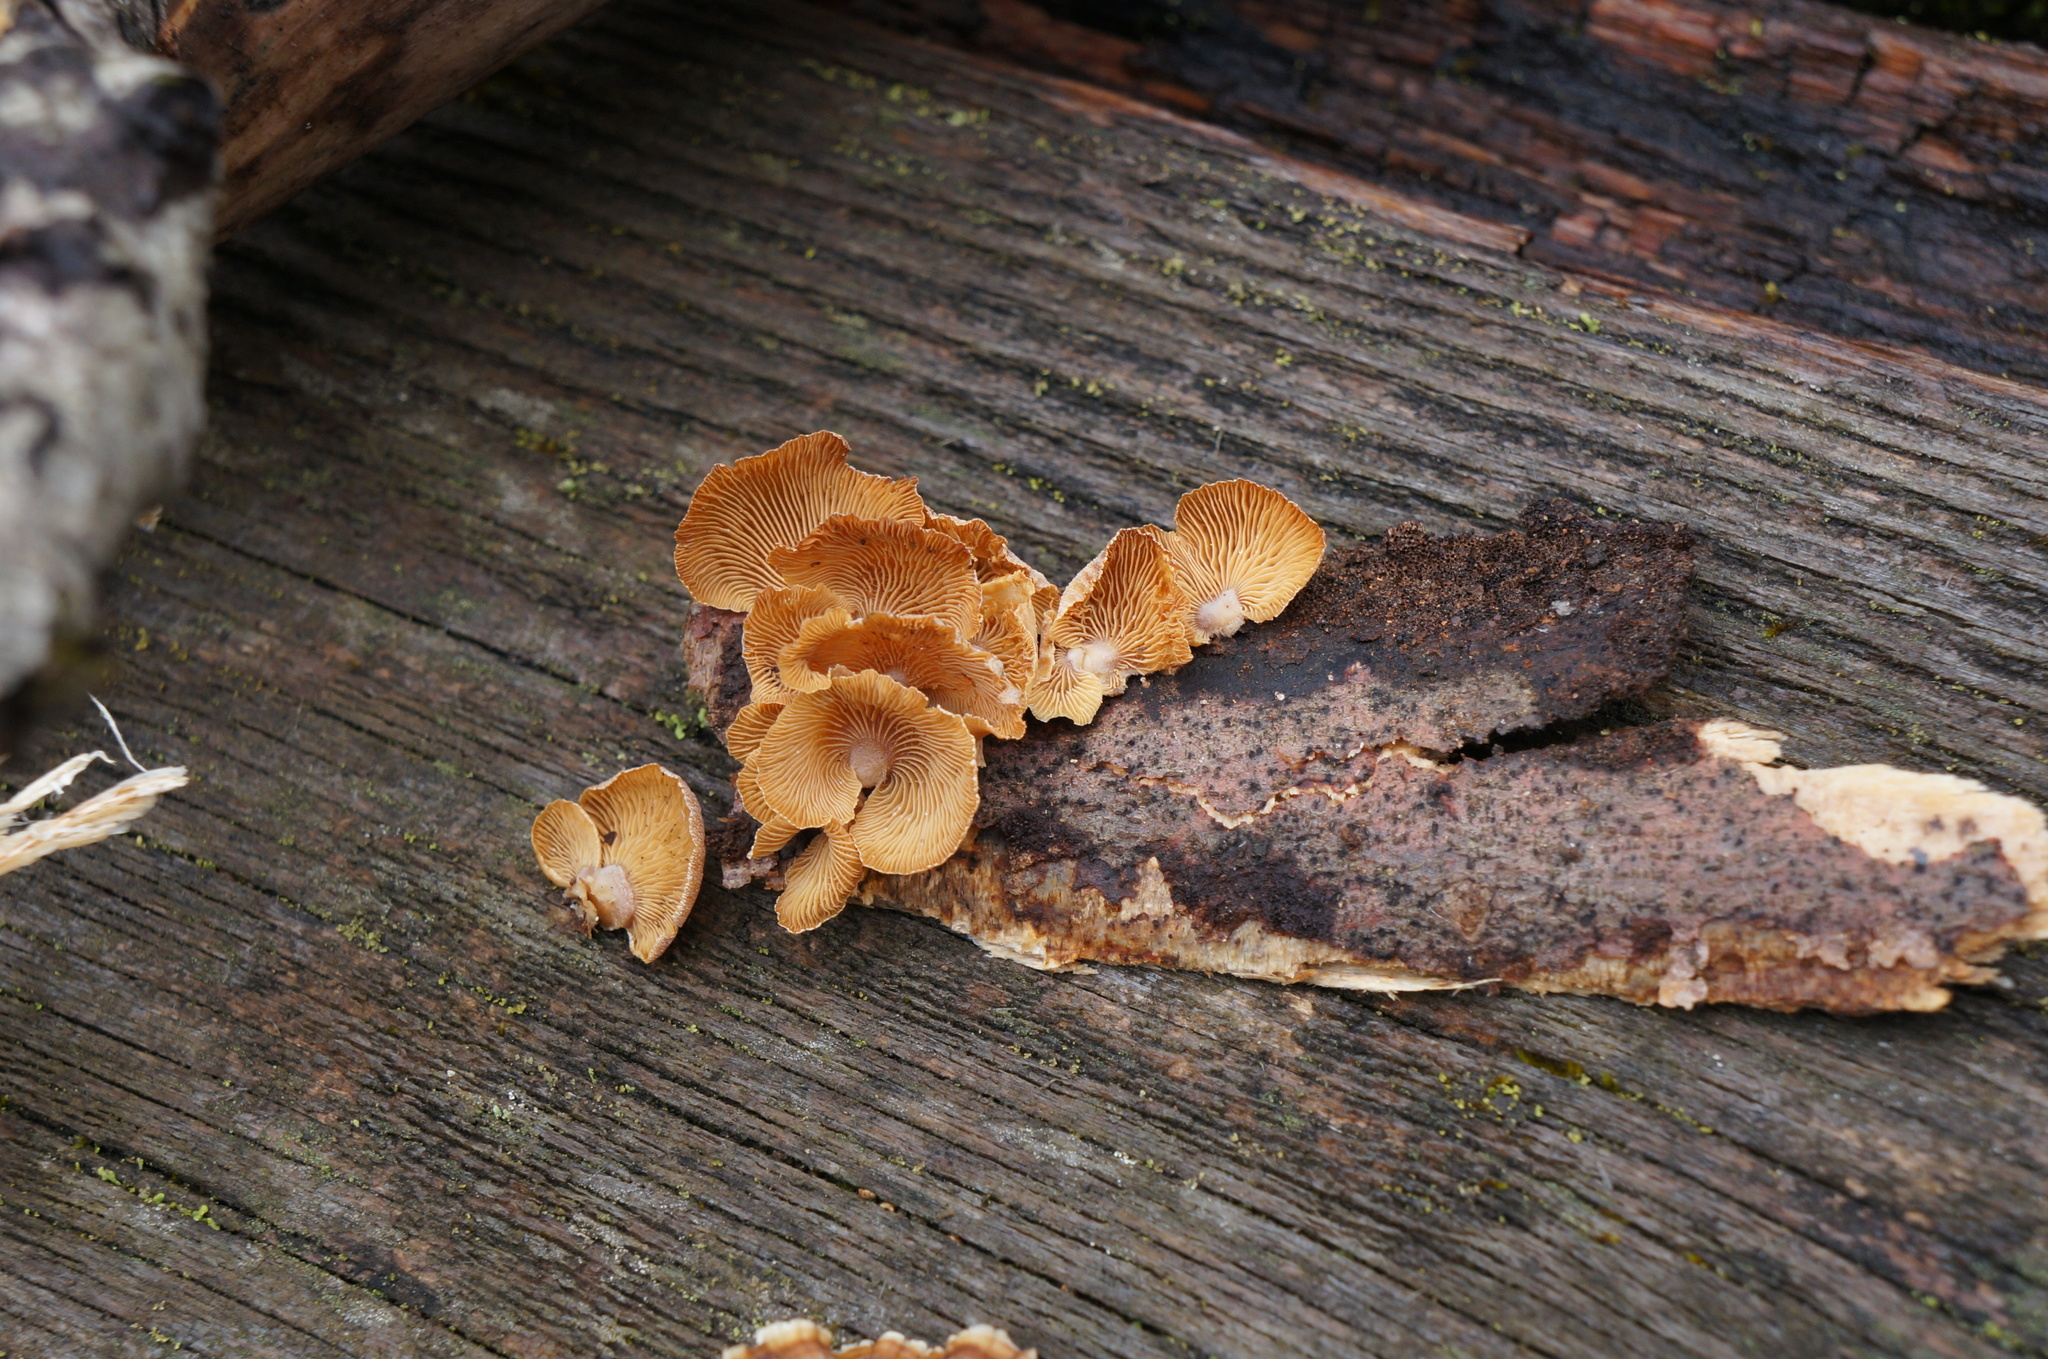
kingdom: Fungi
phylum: Basidiomycota
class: Agaricomycetes
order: Agaricales
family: Mycenaceae
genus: Panellus
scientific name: Panellus stipticus
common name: Bitter oysterling
